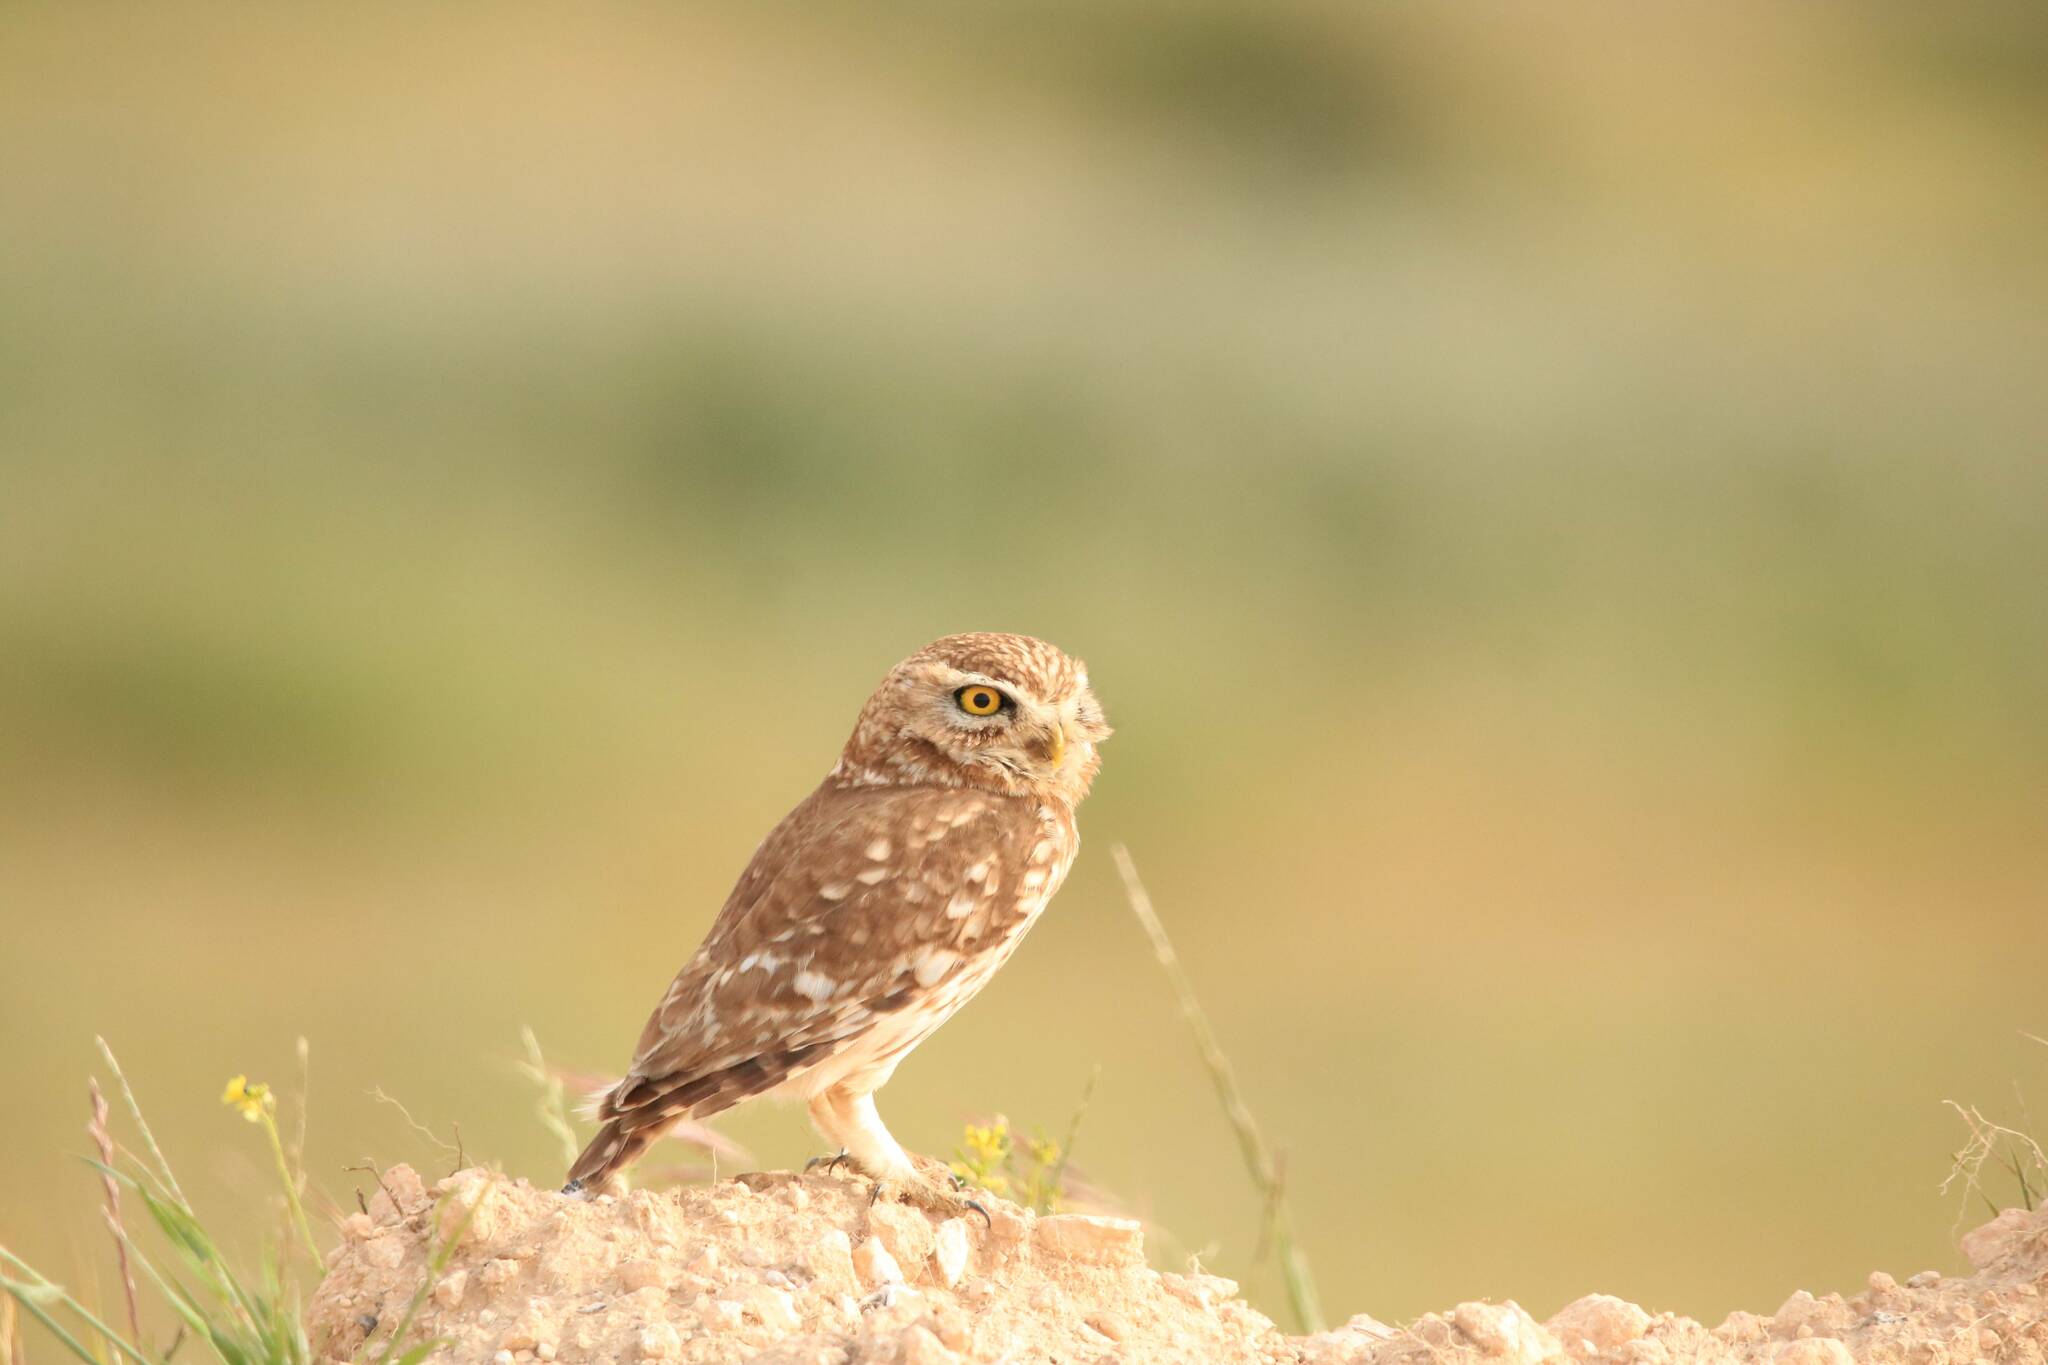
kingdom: Animalia
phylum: Chordata
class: Aves
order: Strigiformes
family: Strigidae
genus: Athene
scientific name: Athene noctua
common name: Little owl
